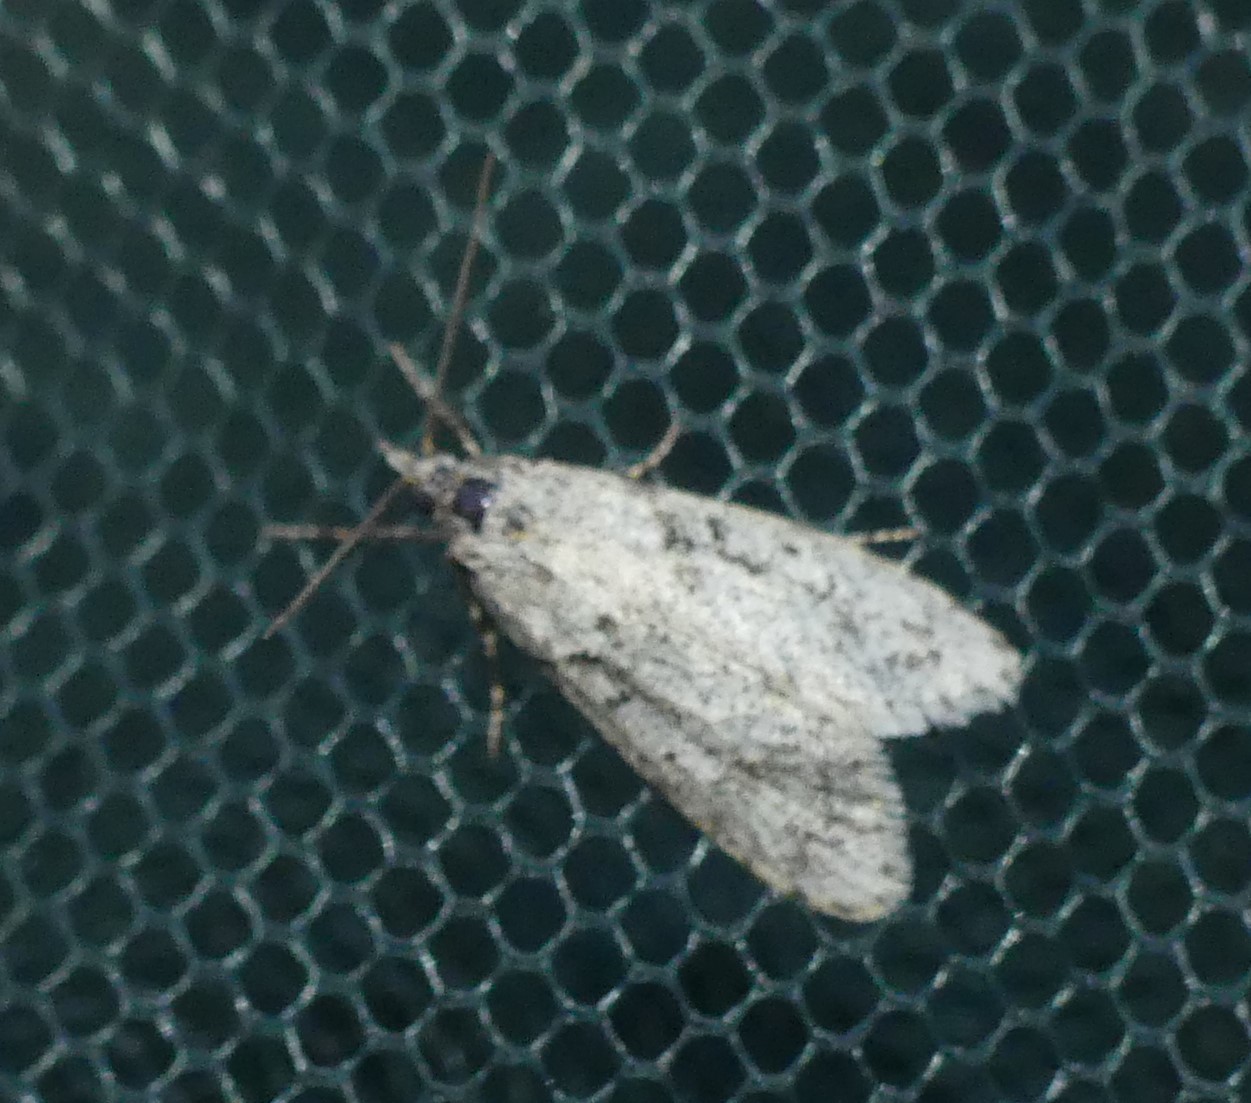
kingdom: Animalia
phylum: Arthropoda
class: Insecta
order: Lepidoptera
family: Lypusidae
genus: Diurnea
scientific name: Diurnea fagella
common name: March tubic
